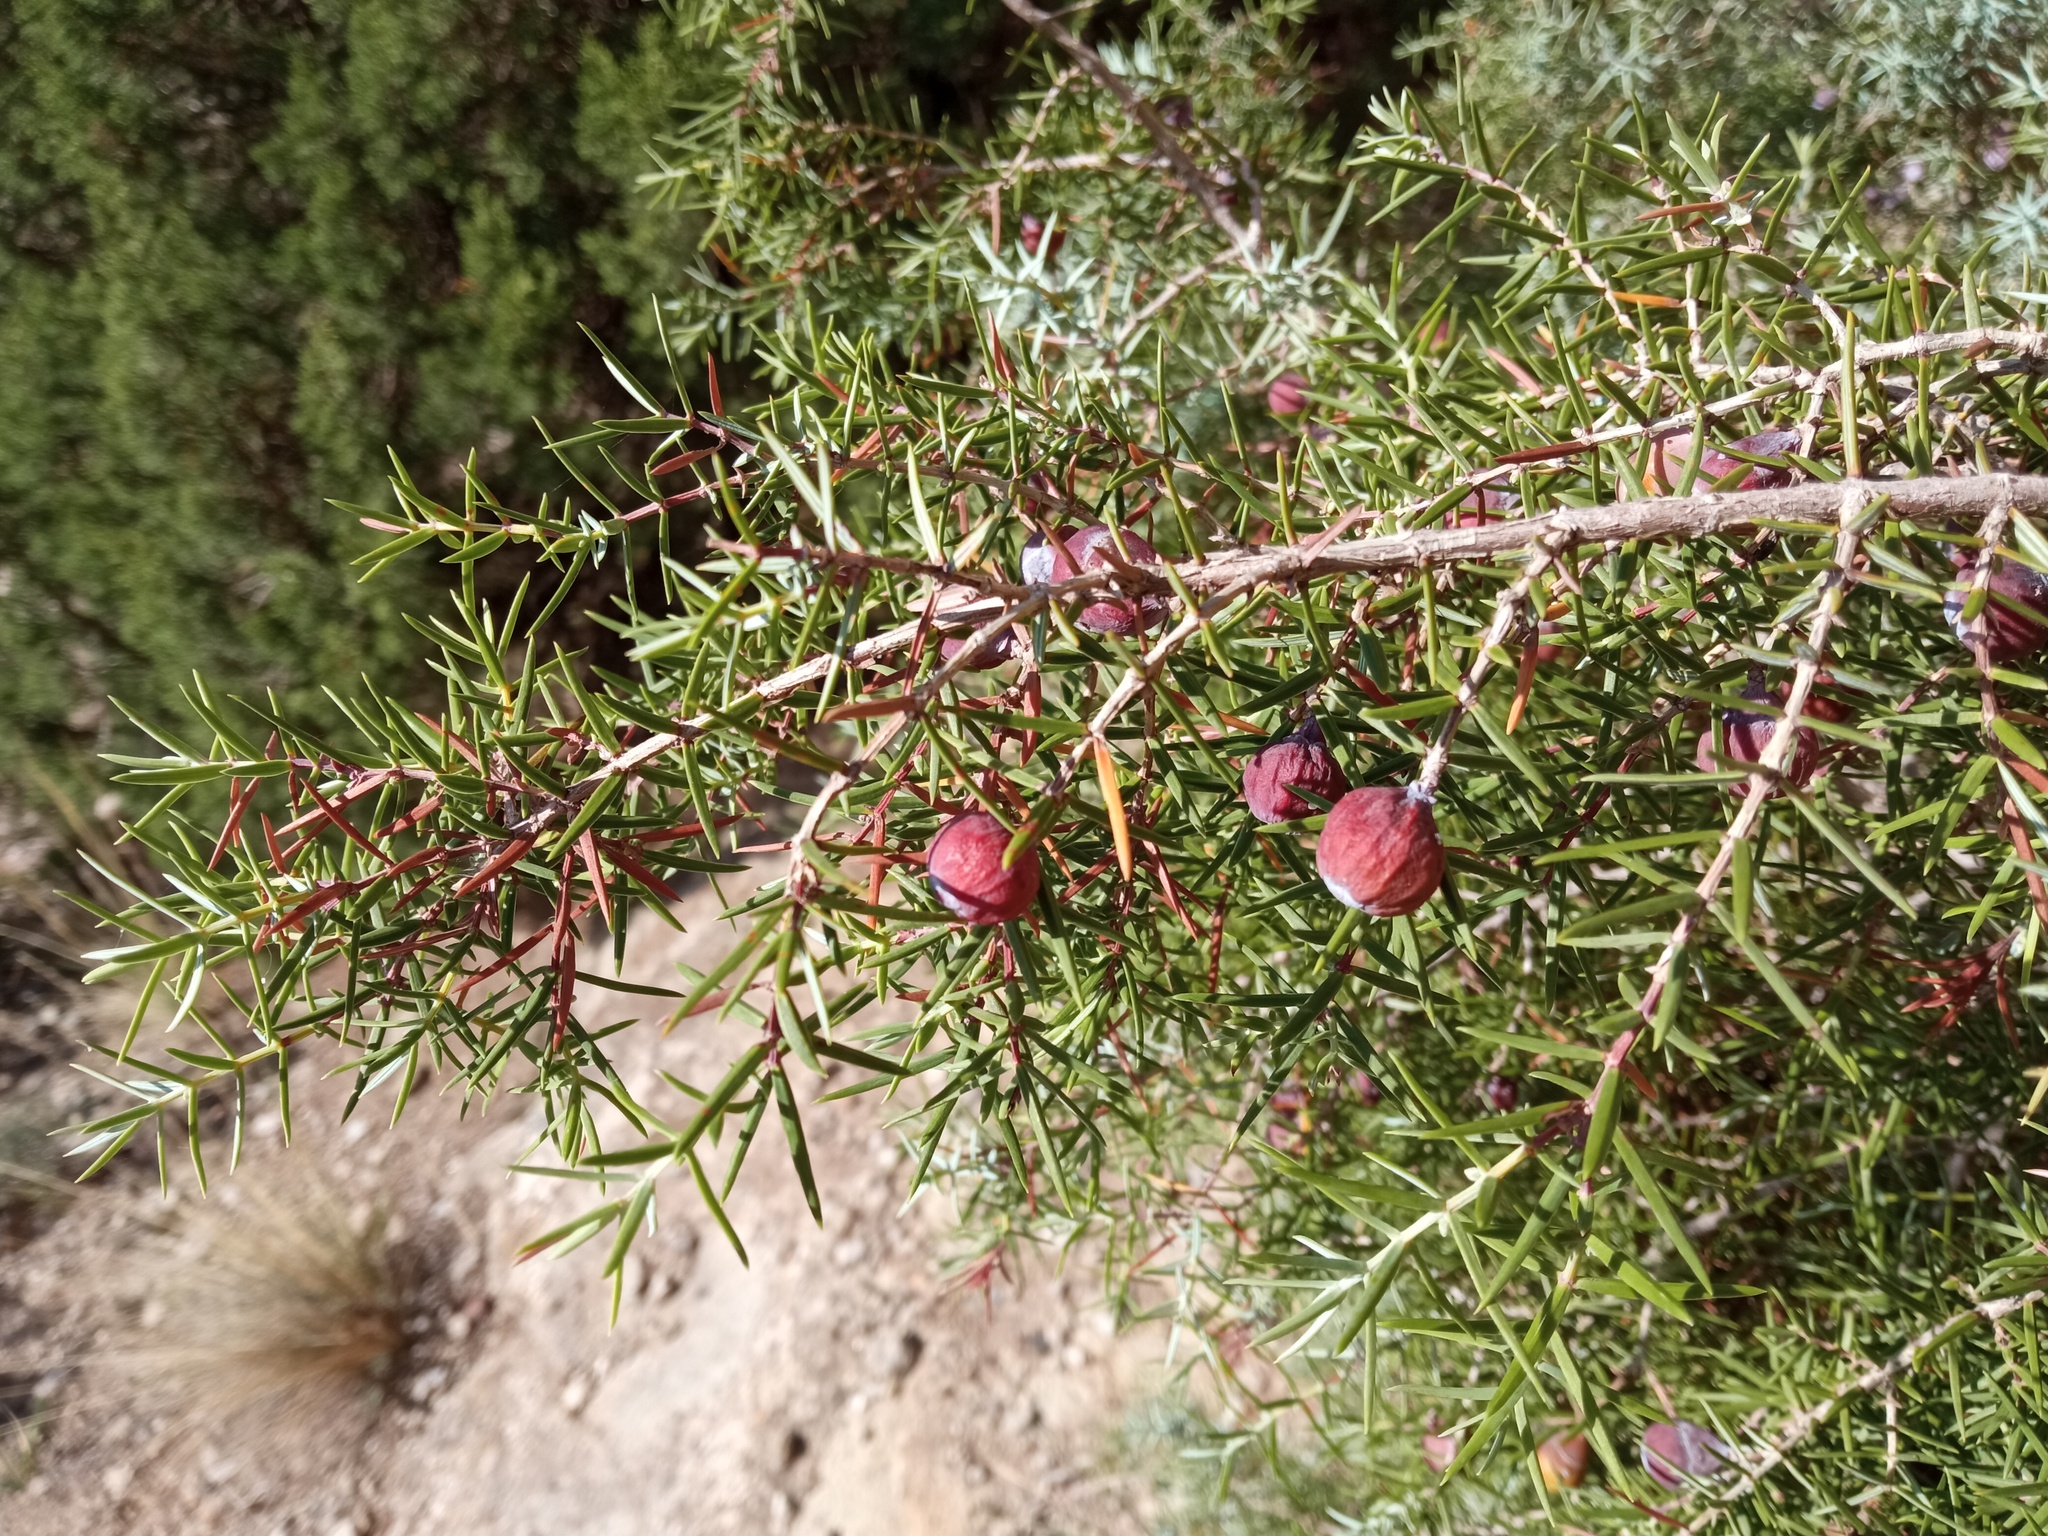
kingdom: Plantae
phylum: Tracheophyta
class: Pinopsida
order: Pinales
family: Cupressaceae
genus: Juniperus
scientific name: Juniperus oxycedrus
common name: Prickly juniper
